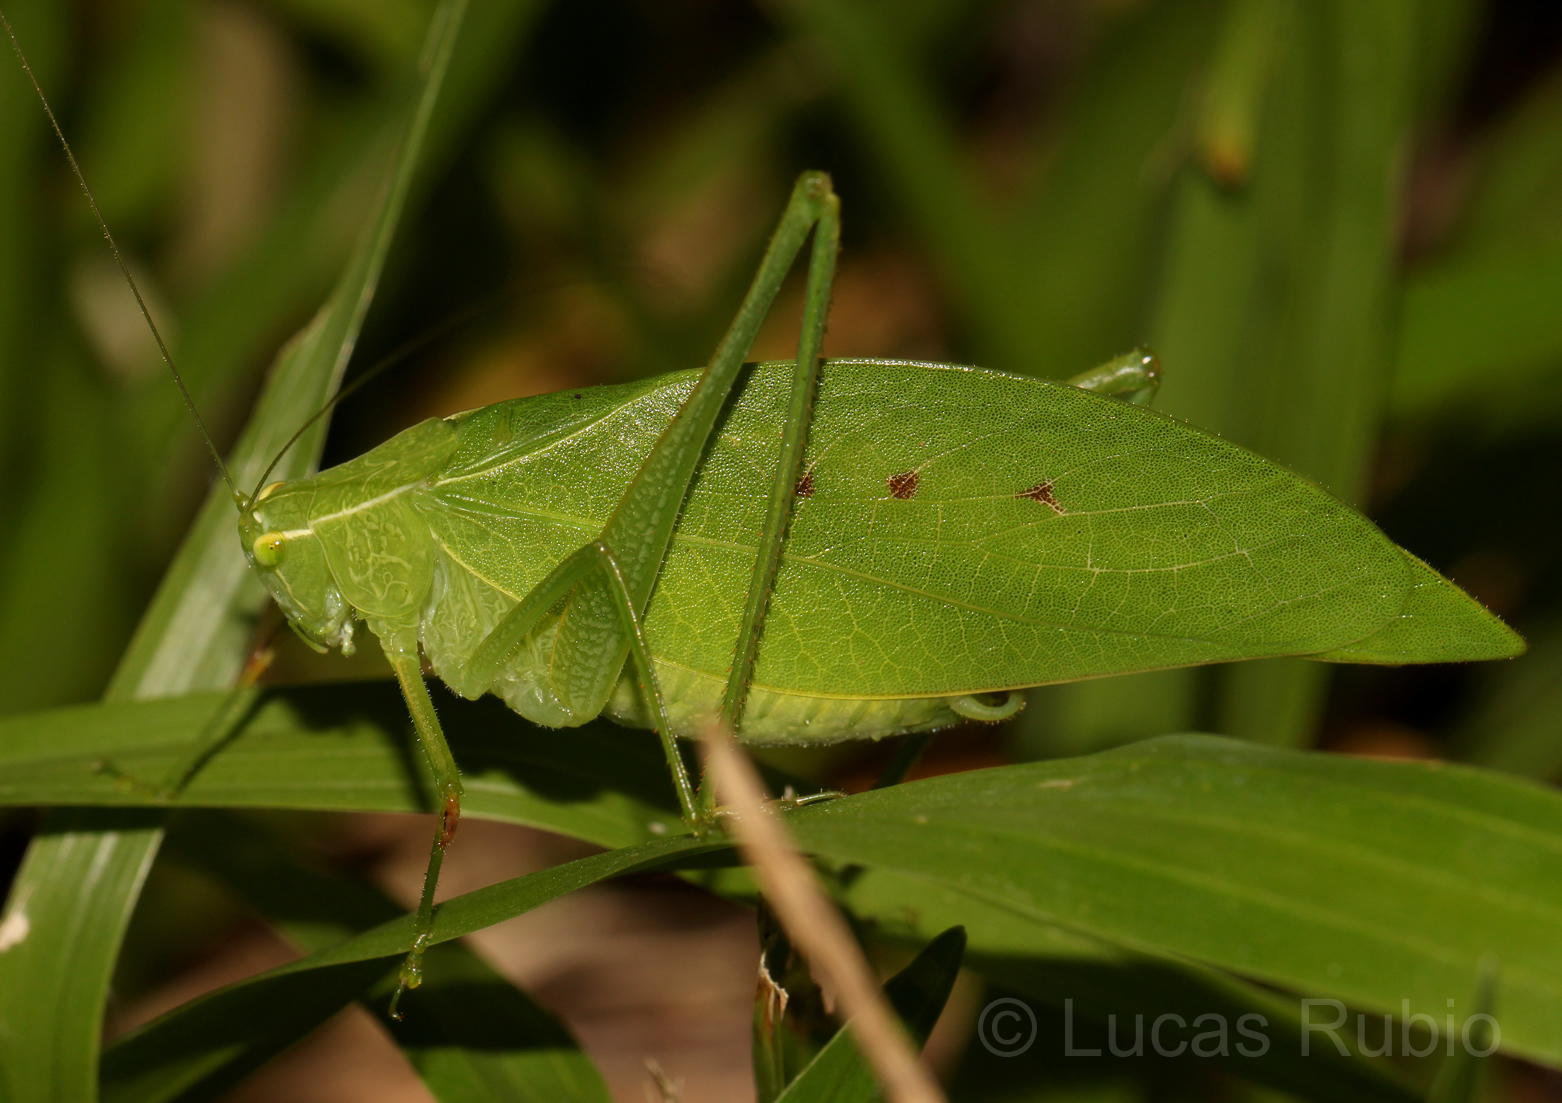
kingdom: Animalia
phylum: Arthropoda
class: Insecta
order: Orthoptera
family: Tettigoniidae
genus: Phylloptera
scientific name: Phylloptera fosteri
